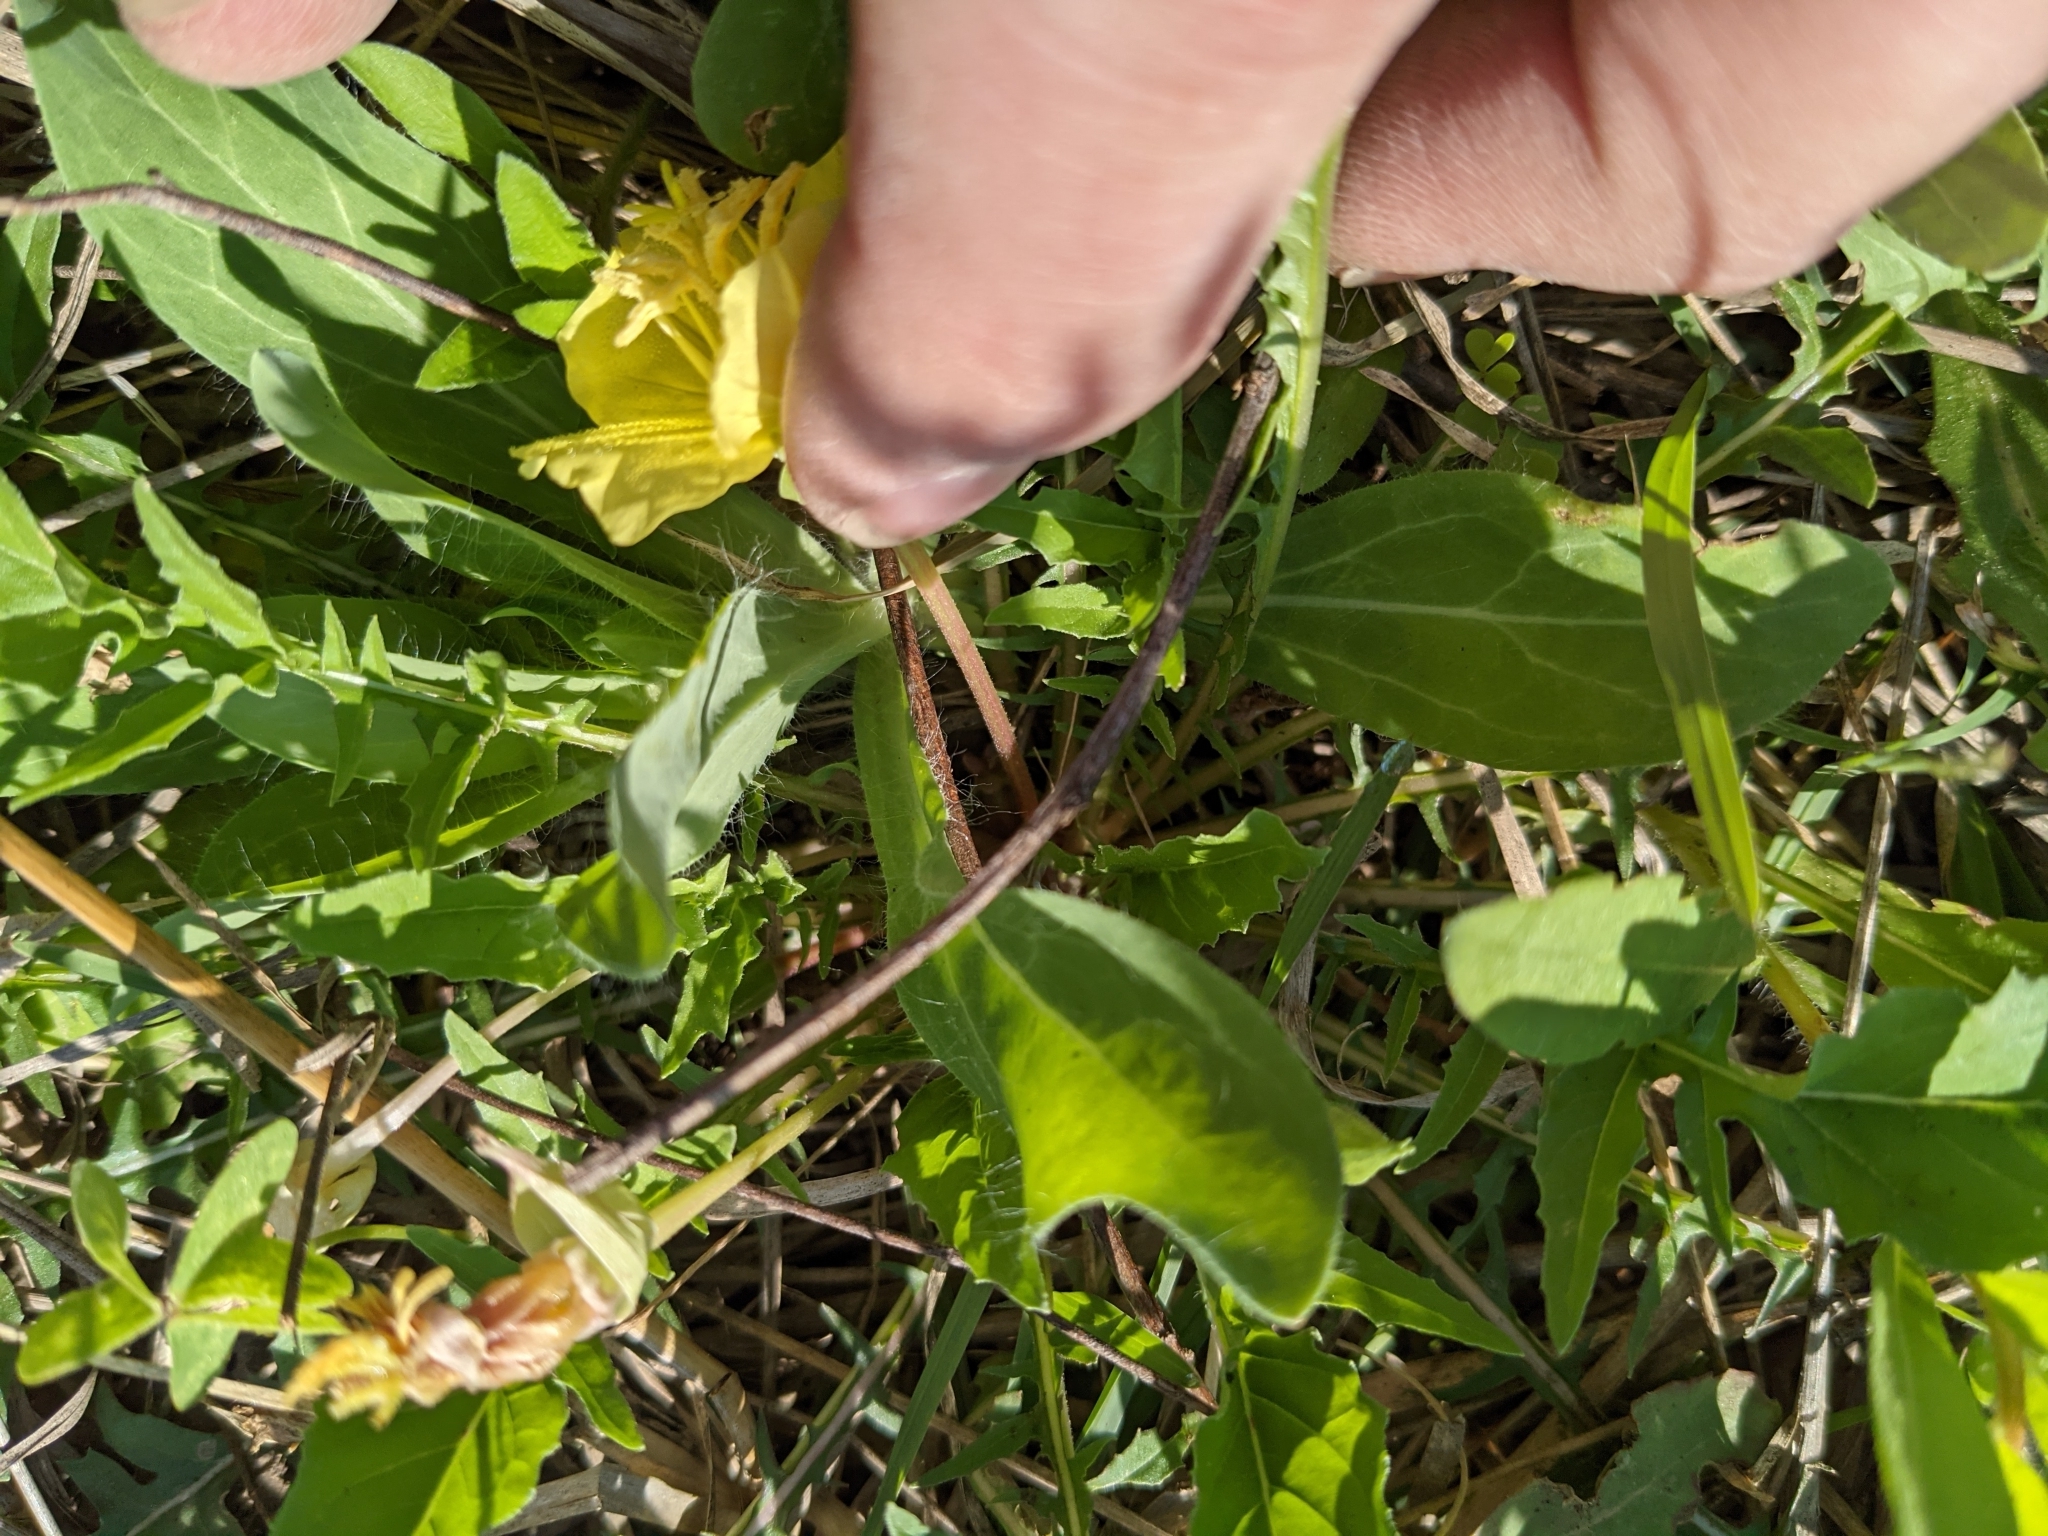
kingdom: Plantae
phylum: Tracheophyta
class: Magnoliopsida
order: Myrtales
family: Onagraceae
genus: Oenothera
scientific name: Oenothera triloba
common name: Sessile evening-primrose
